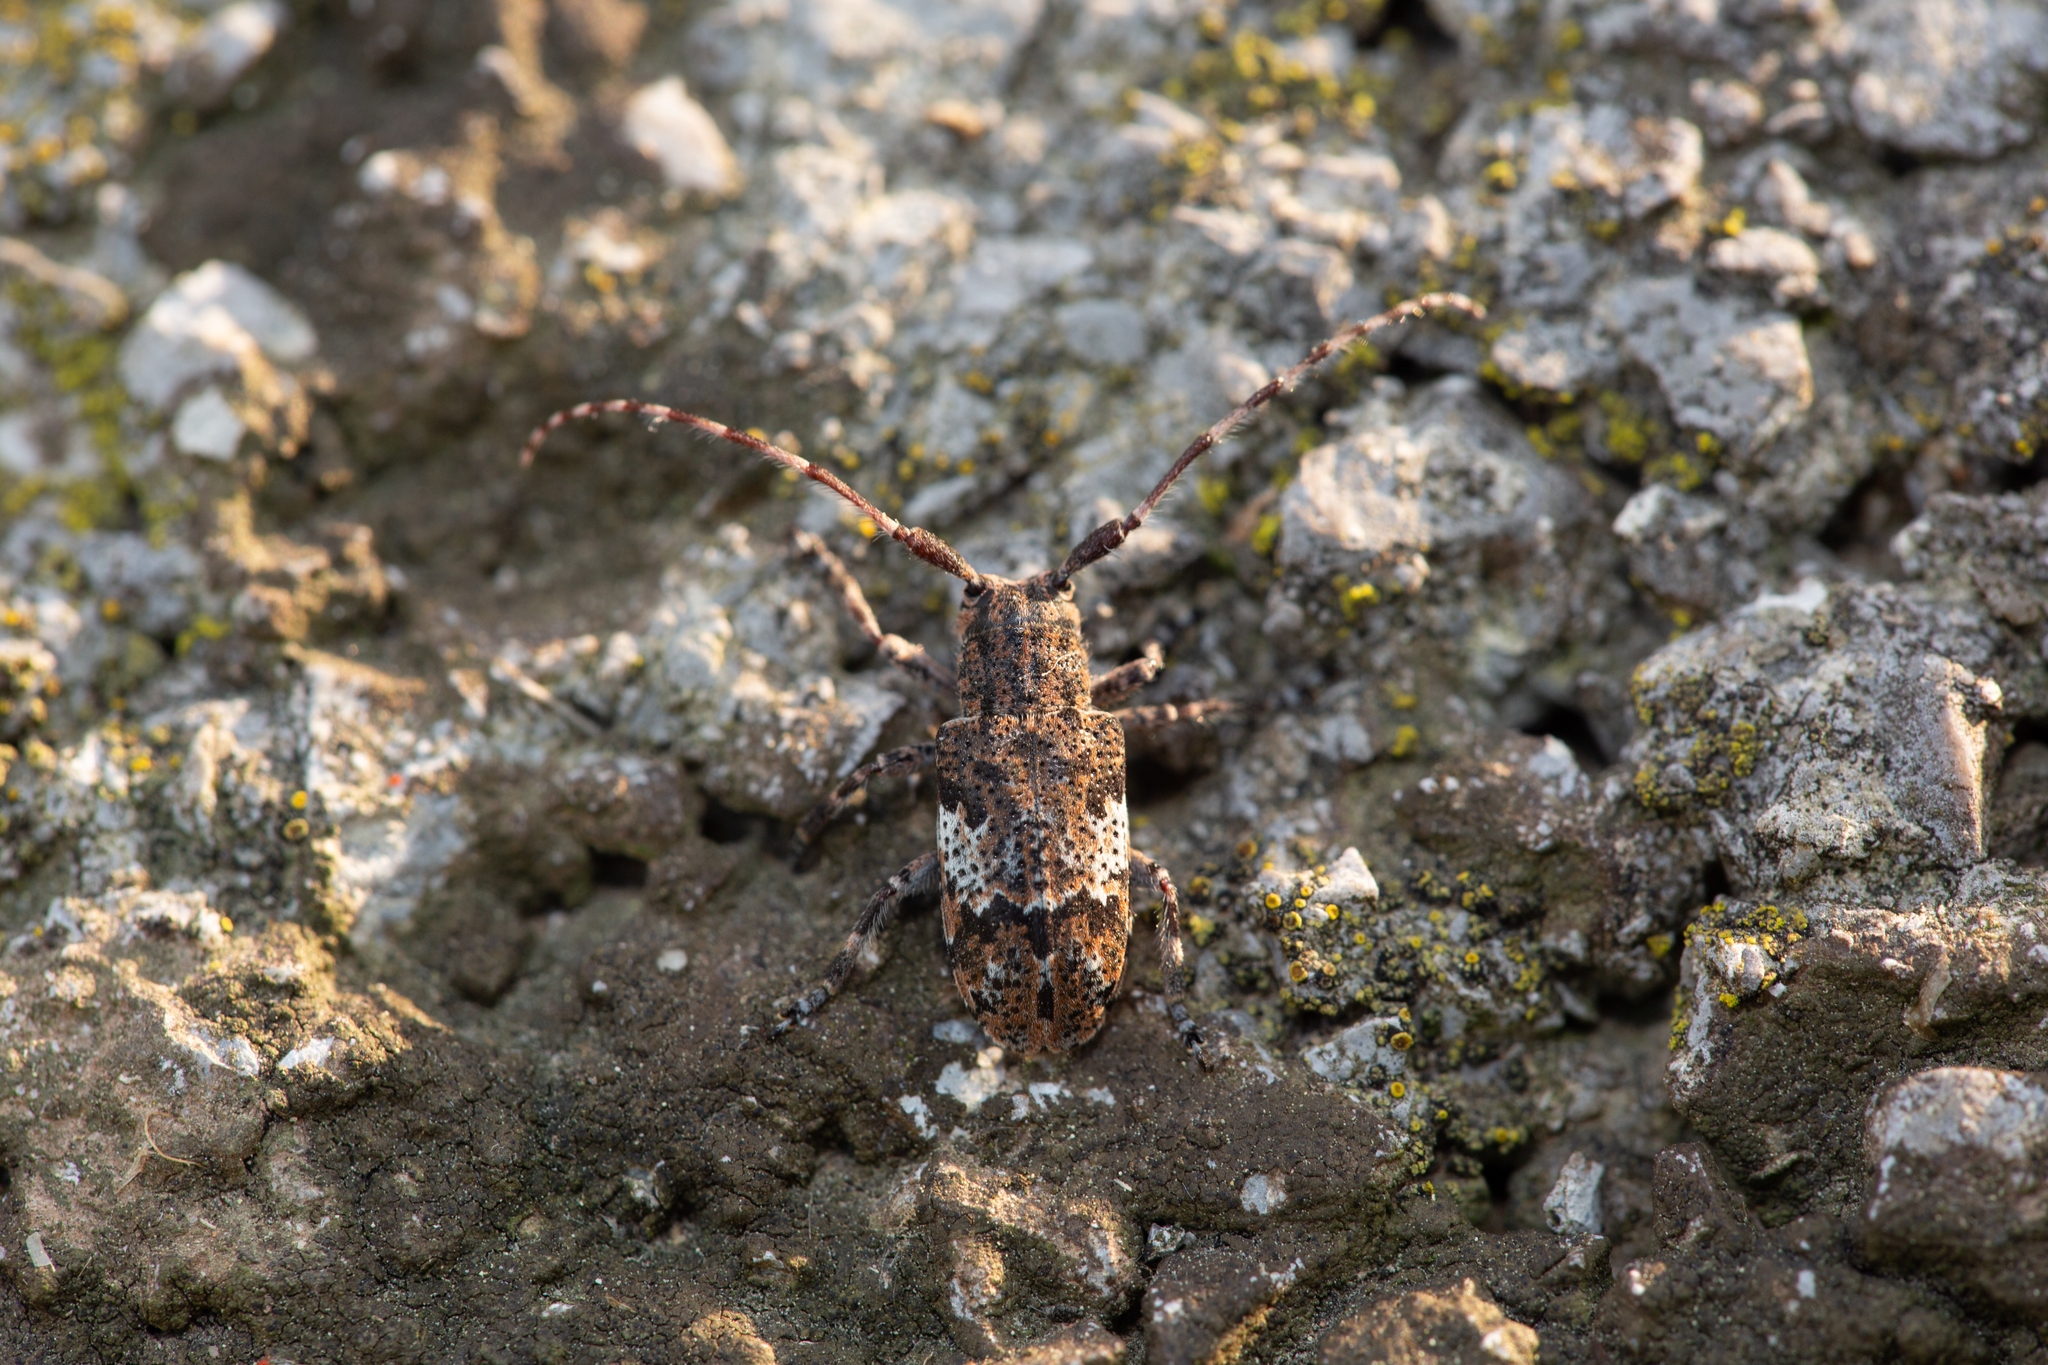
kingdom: Animalia
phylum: Arthropoda
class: Insecta
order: Coleoptera
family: Cerambycidae
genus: Mesosa
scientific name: Mesosa nebulosa
